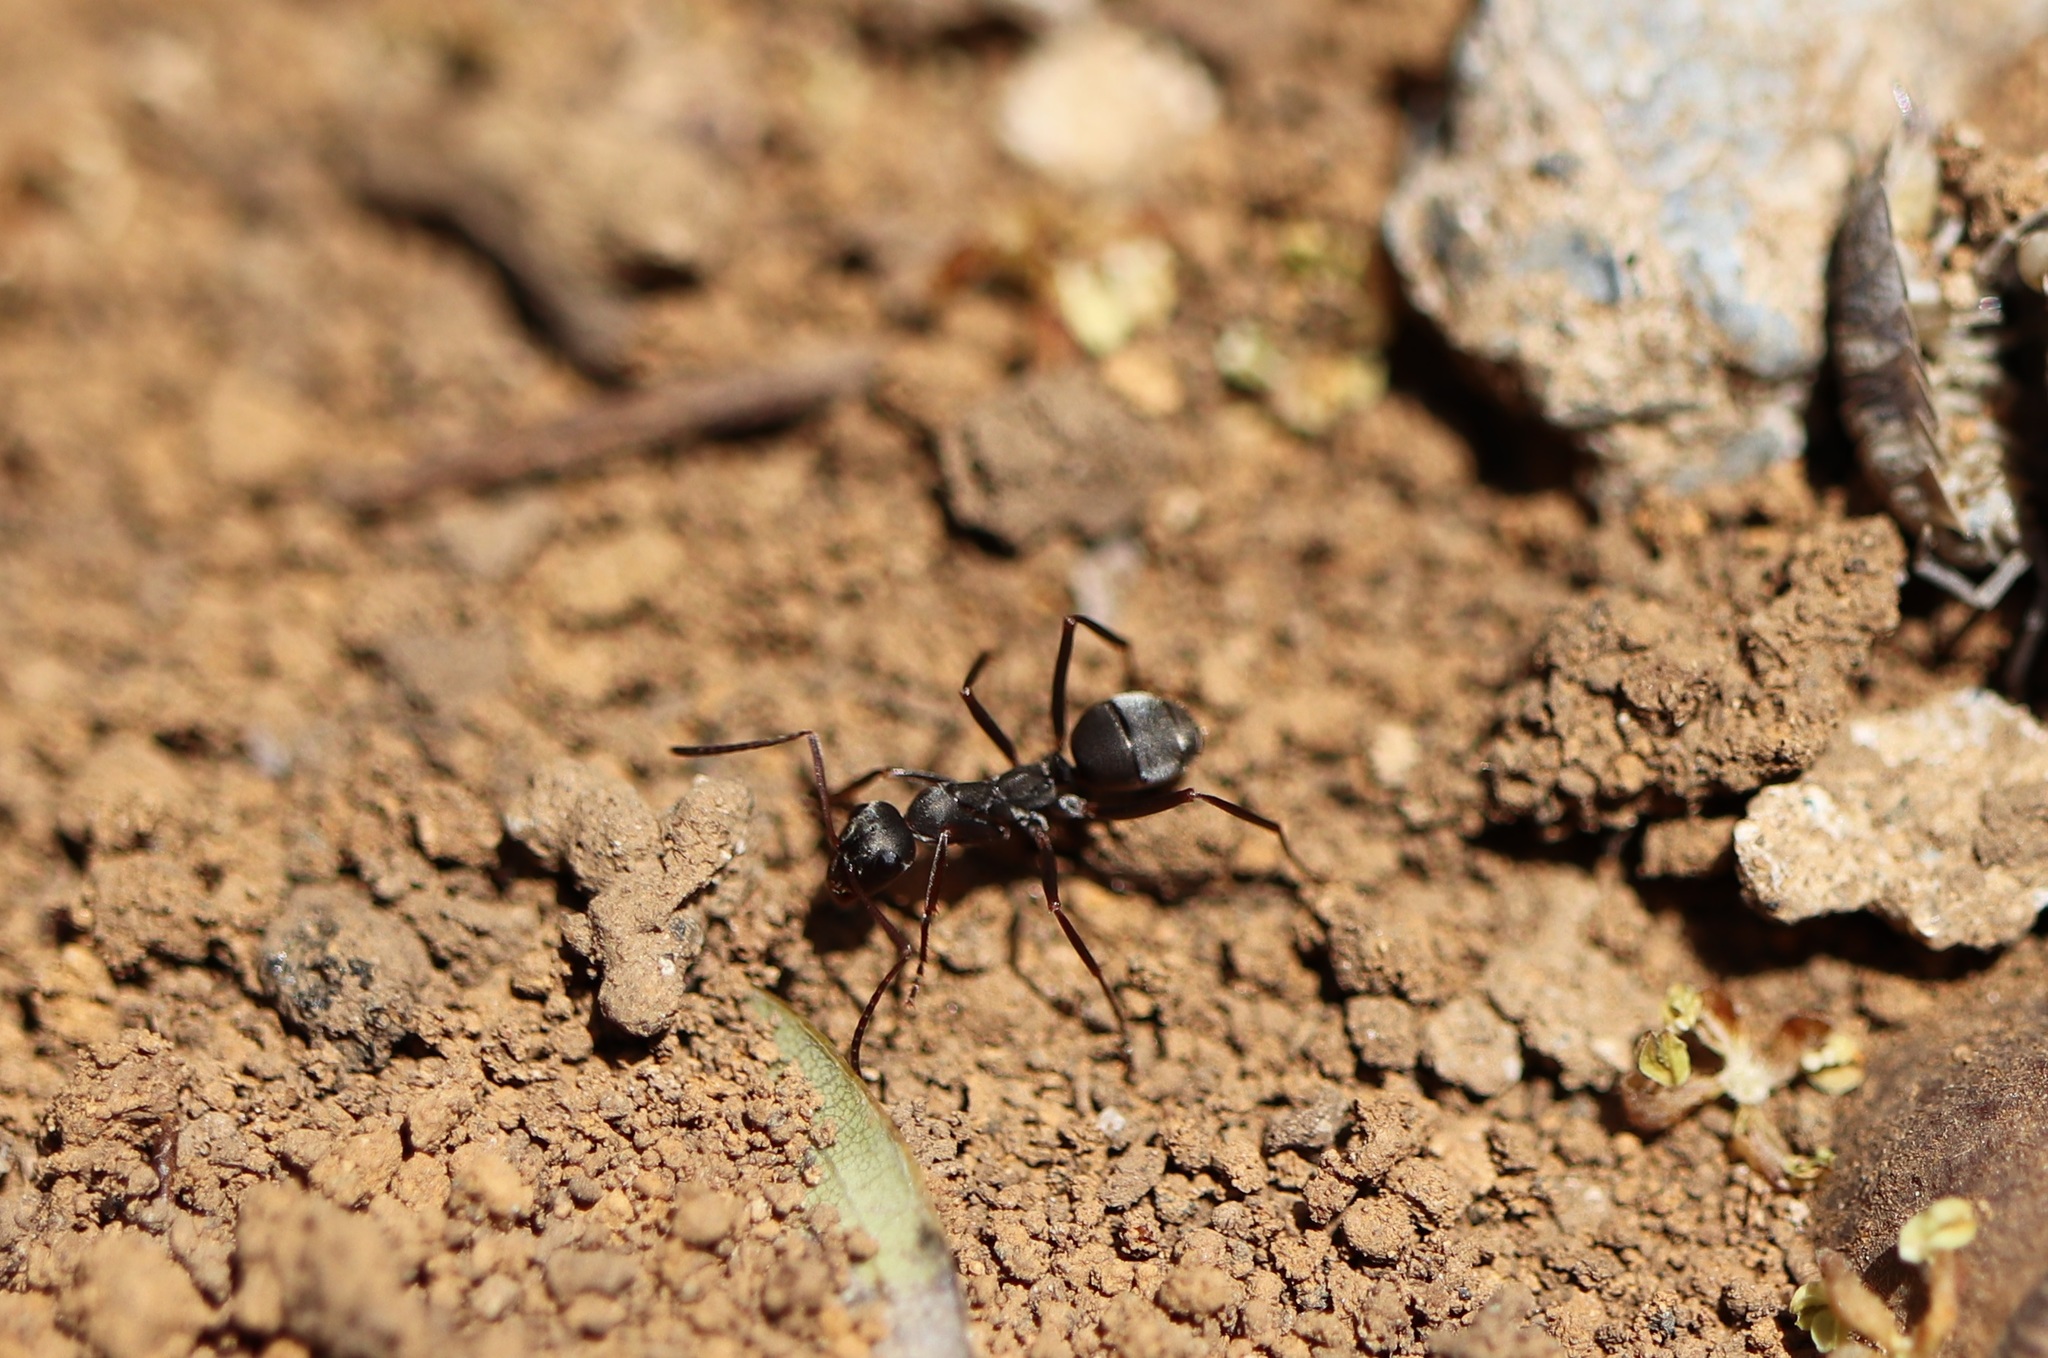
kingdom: Animalia
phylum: Arthropoda
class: Insecta
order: Hymenoptera
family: Formicidae
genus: Formica
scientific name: Formica japonica
